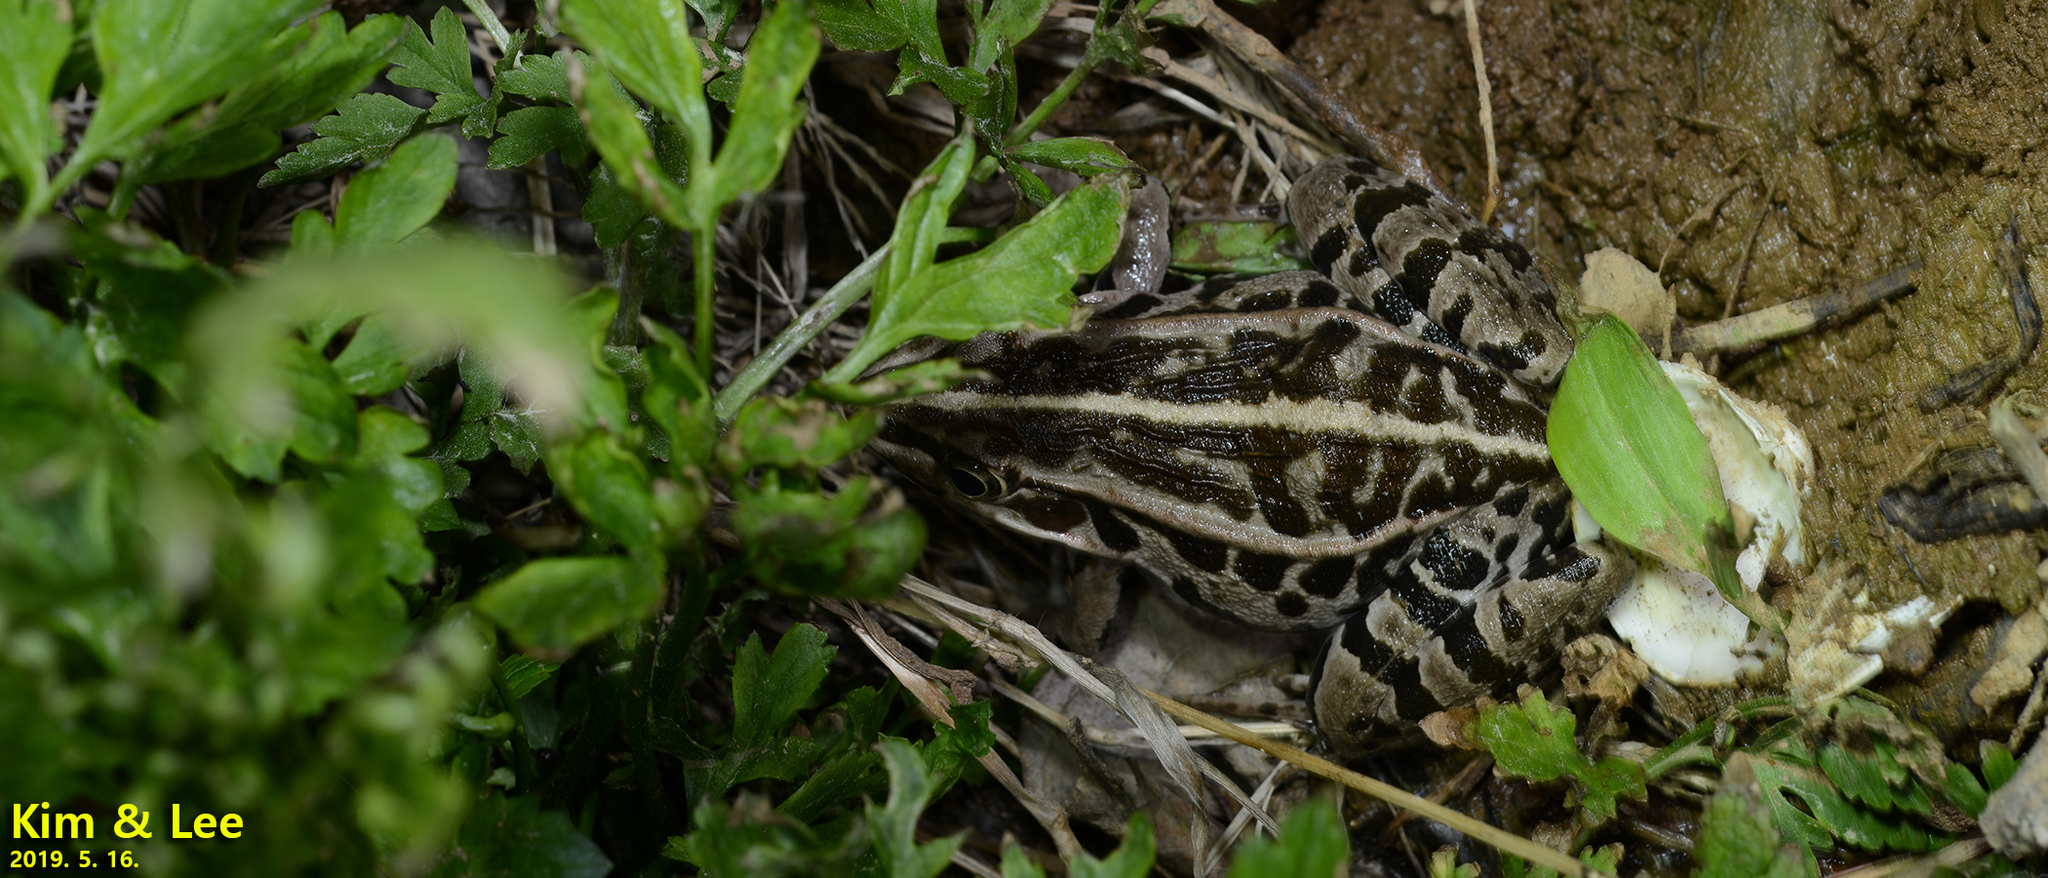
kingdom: Animalia
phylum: Chordata
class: Amphibia
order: Anura
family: Ranidae
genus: Pelophylax
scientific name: Pelophylax nigromaculatus
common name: Black-spotted pond frog
